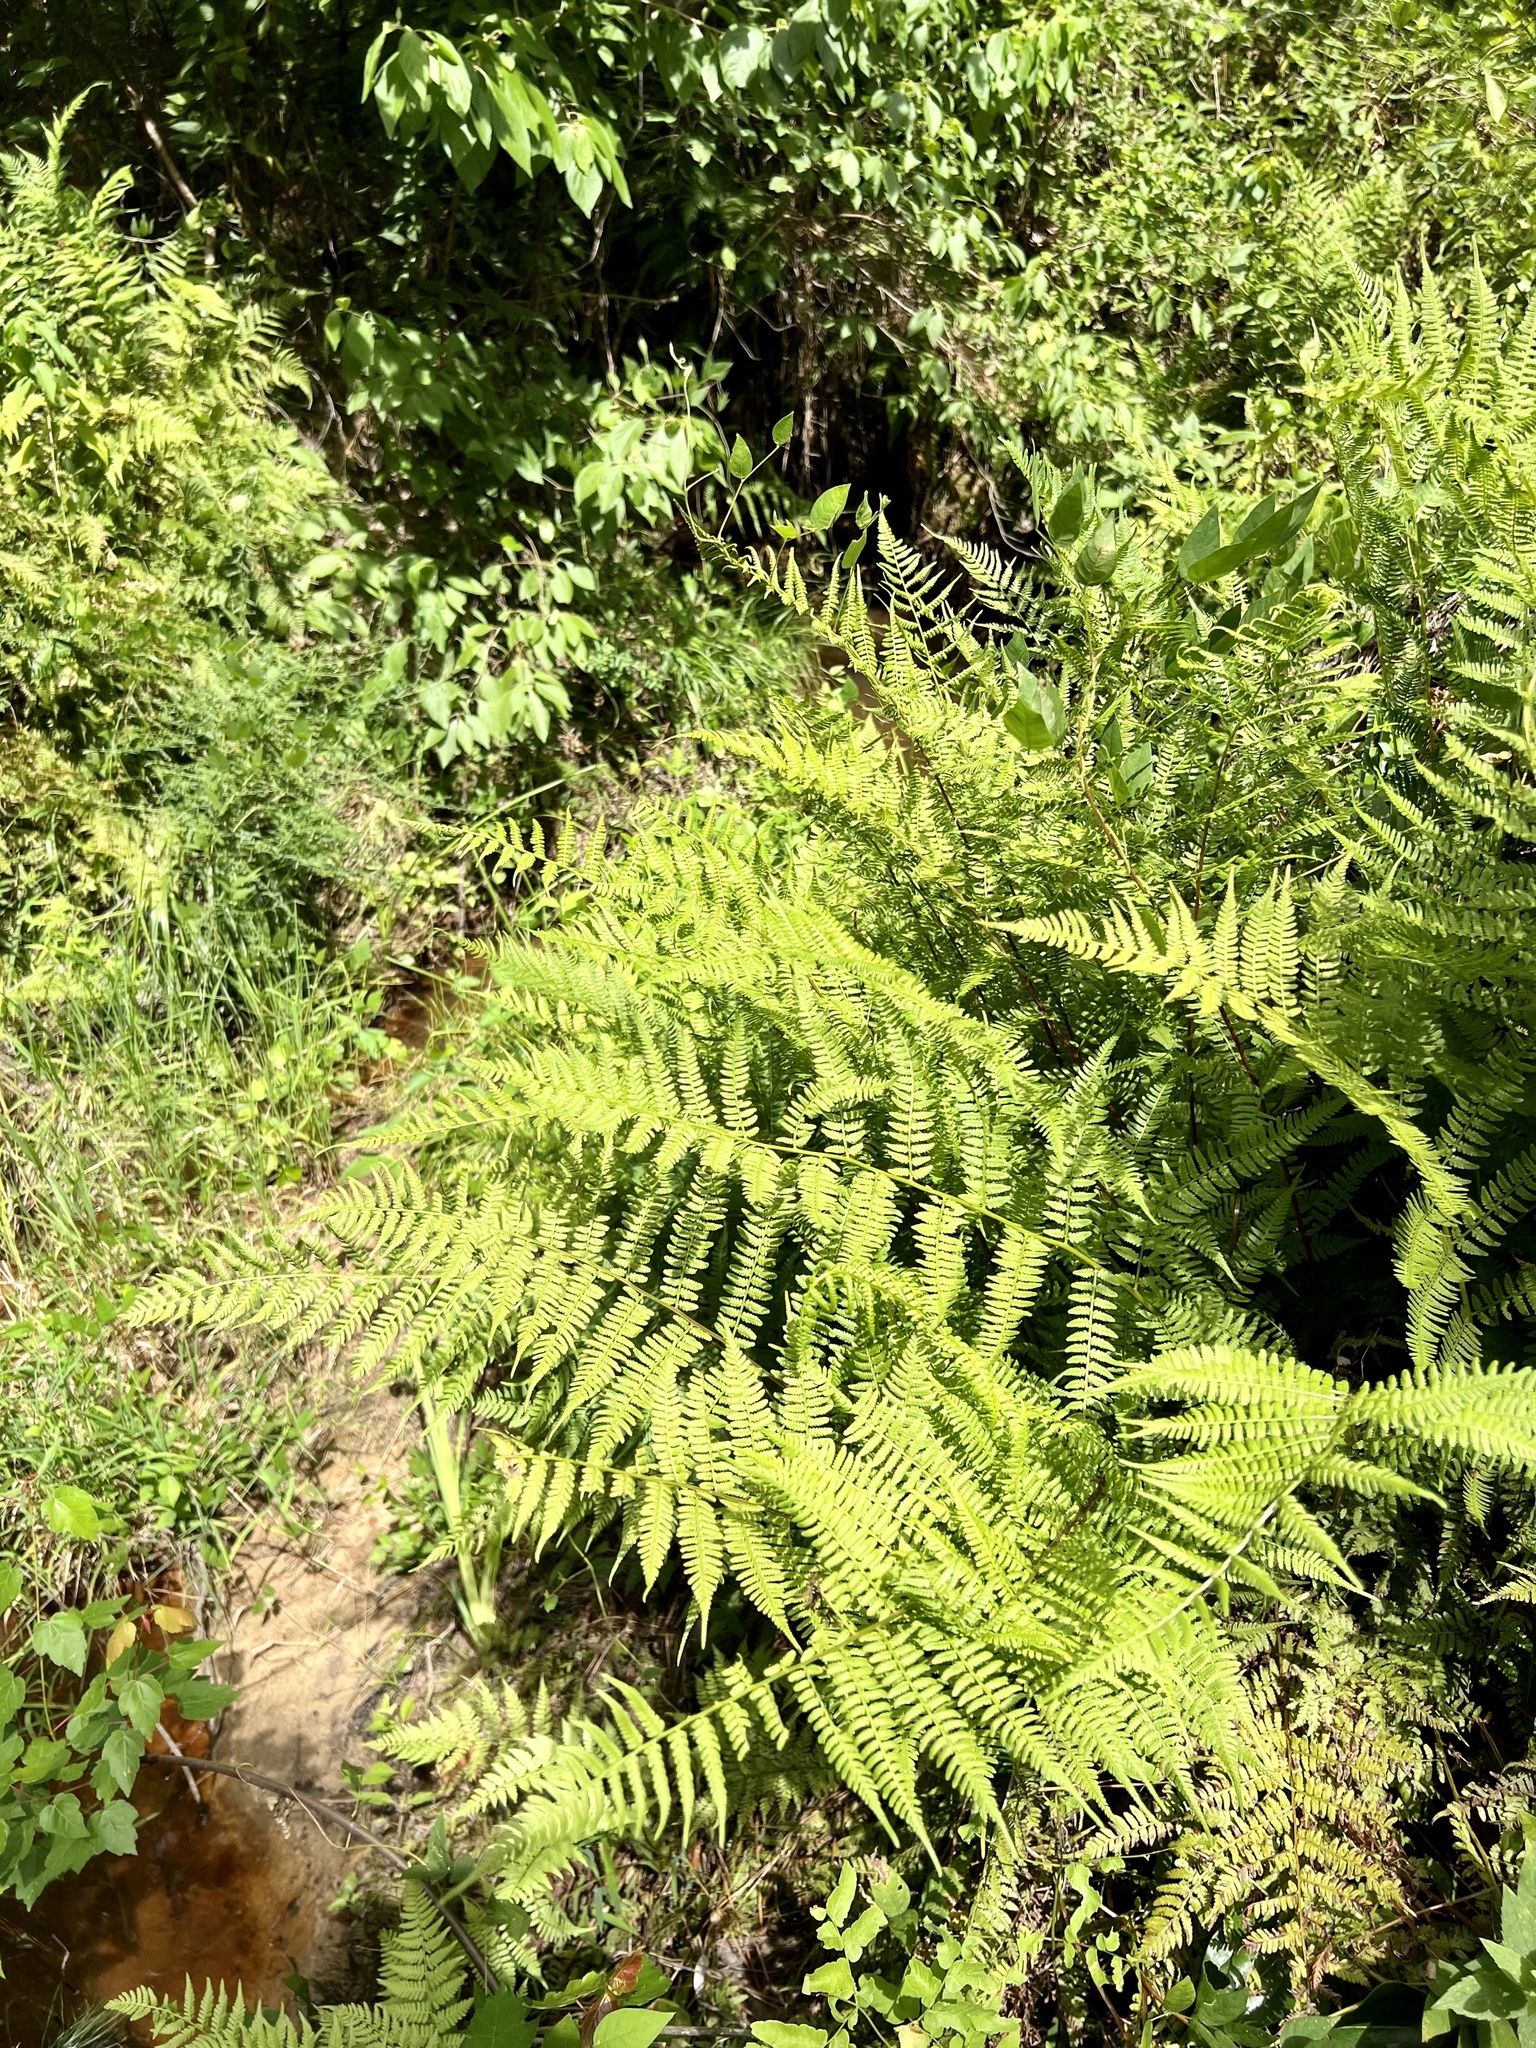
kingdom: Plantae
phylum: Tracheophyta
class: Polypodiopsida
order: Polypodiales
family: Athyriaceae
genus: Athyrium
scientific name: Athyrium asplenioides
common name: Southern lady fern
